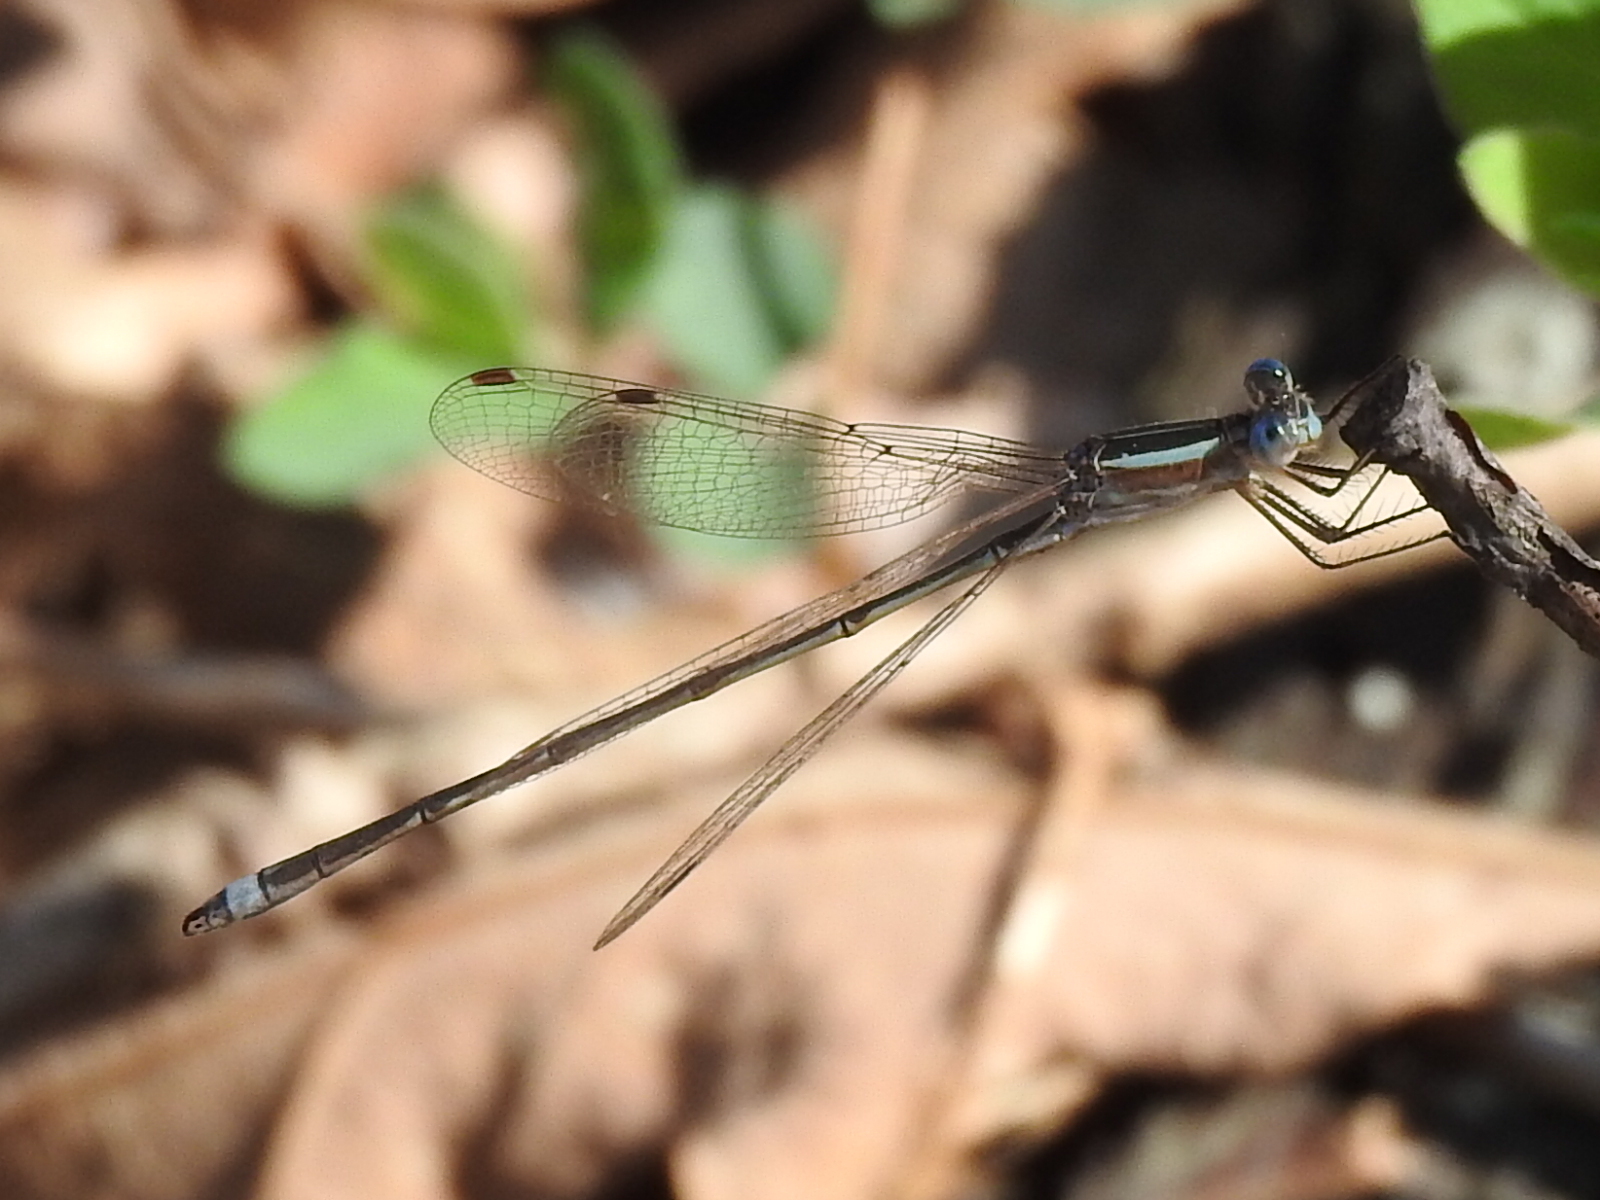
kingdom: Animalia
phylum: Arthropoda
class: Insecta
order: Odonata
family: Lestidae
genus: Lestes
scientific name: Lestes alacer
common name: Plateau spreadwing
